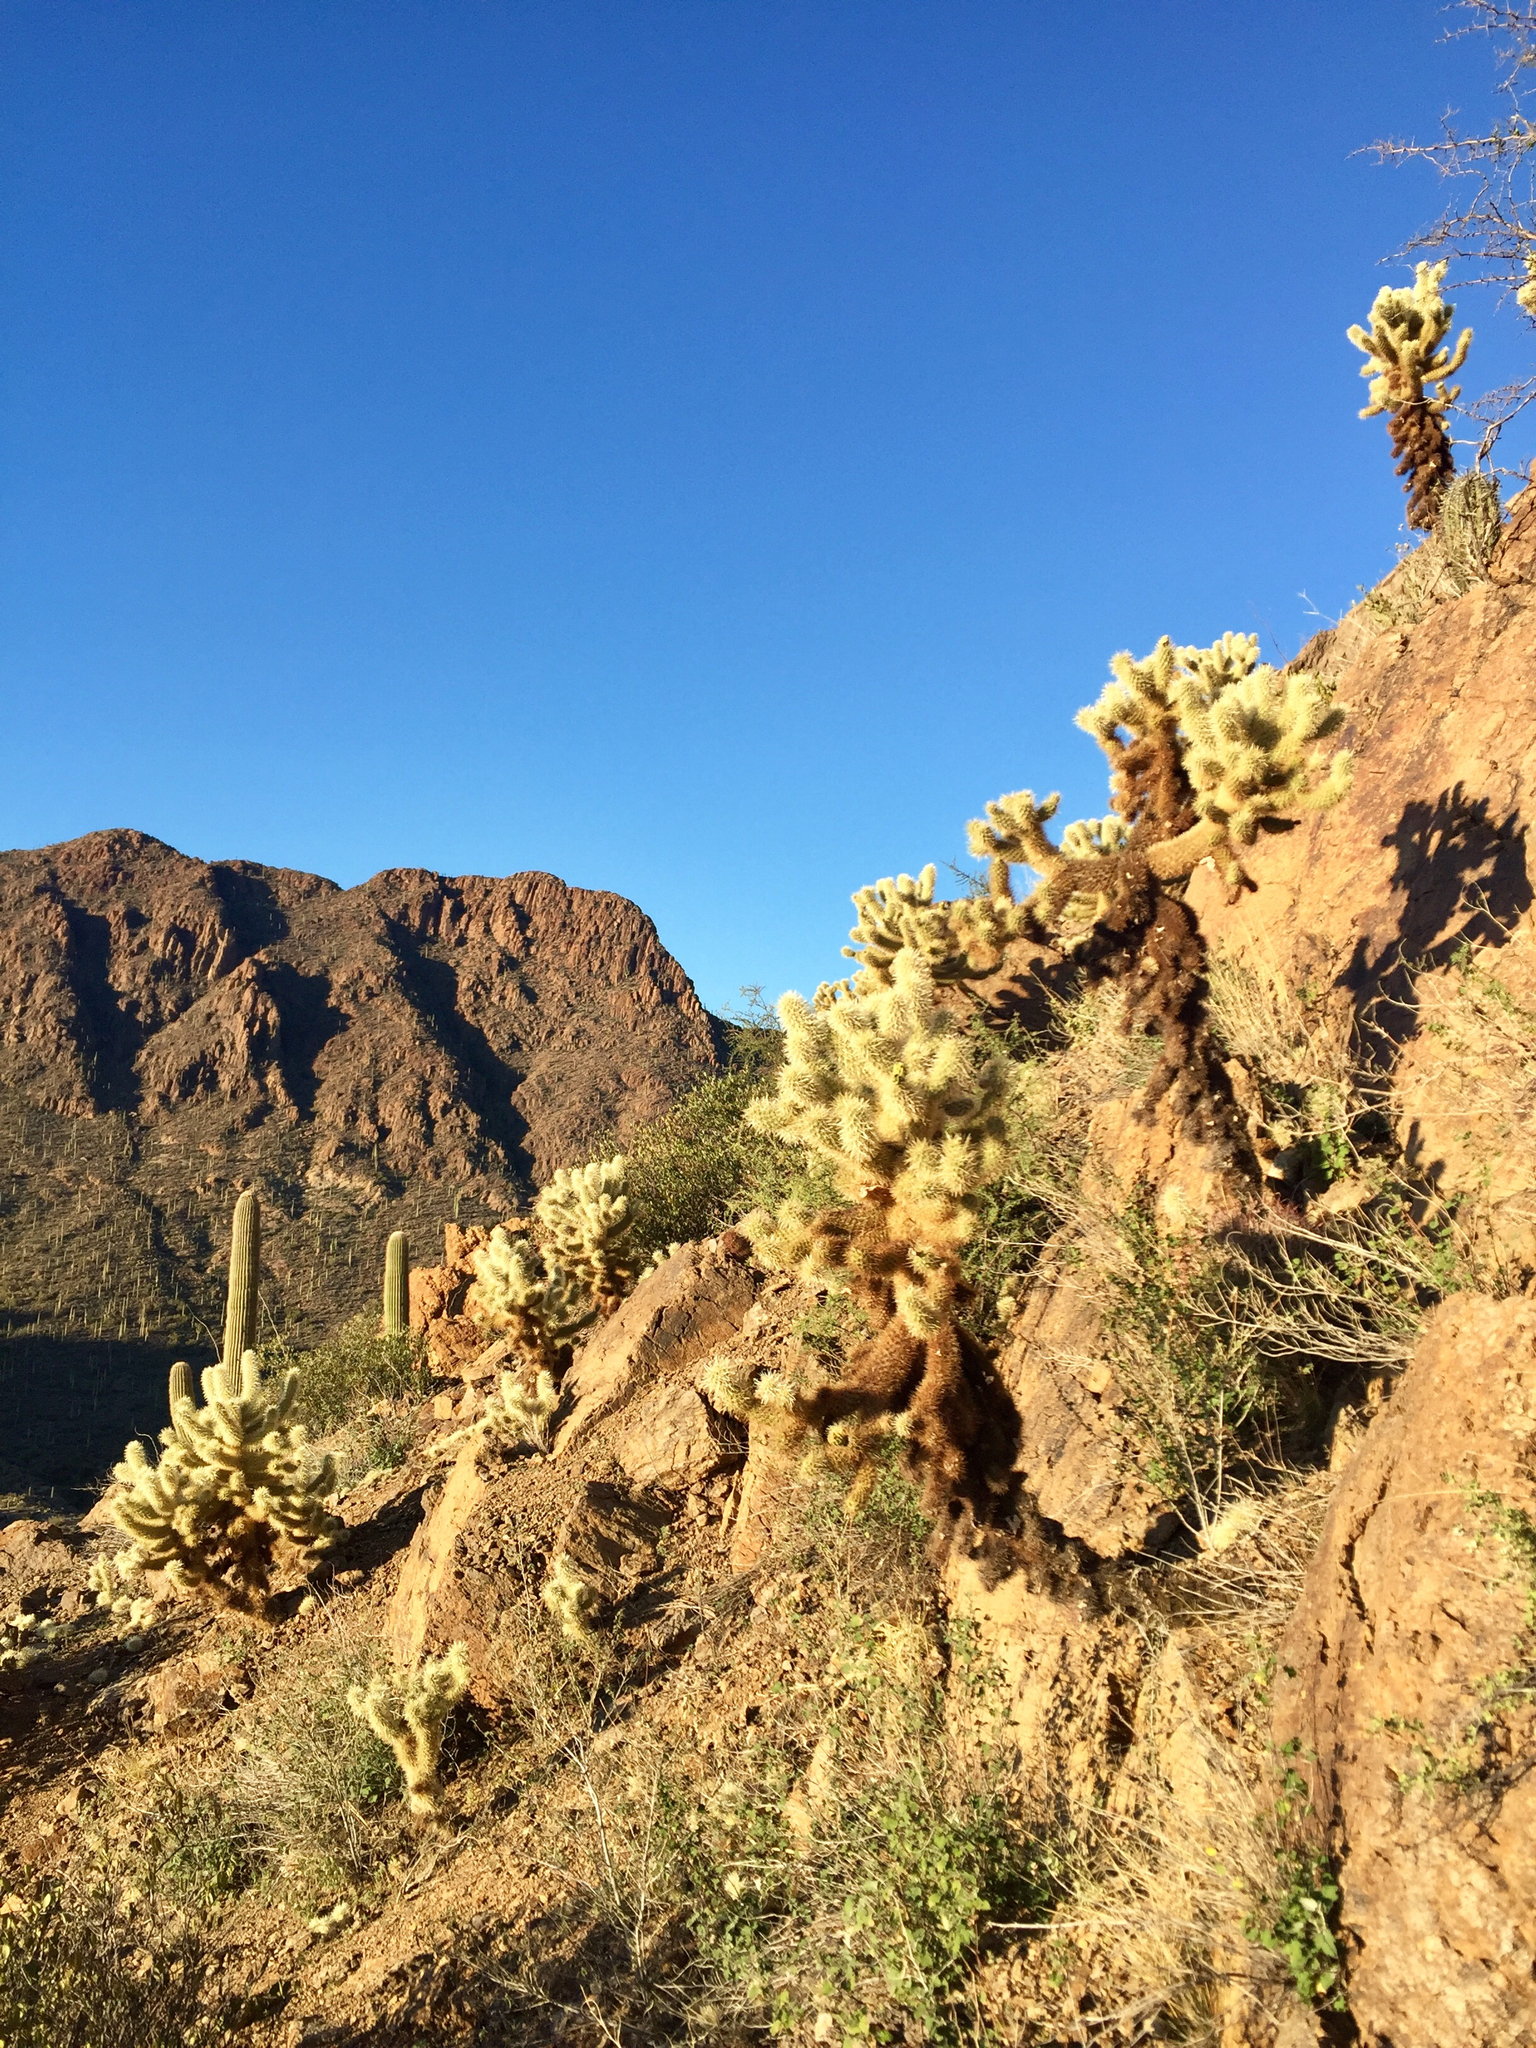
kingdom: Plantae
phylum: Tracheophyta
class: Magnoliopsida
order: Caryophyllales
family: Cactaceae
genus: Cylindropuntia
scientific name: Cylindropuntia fosbergii
